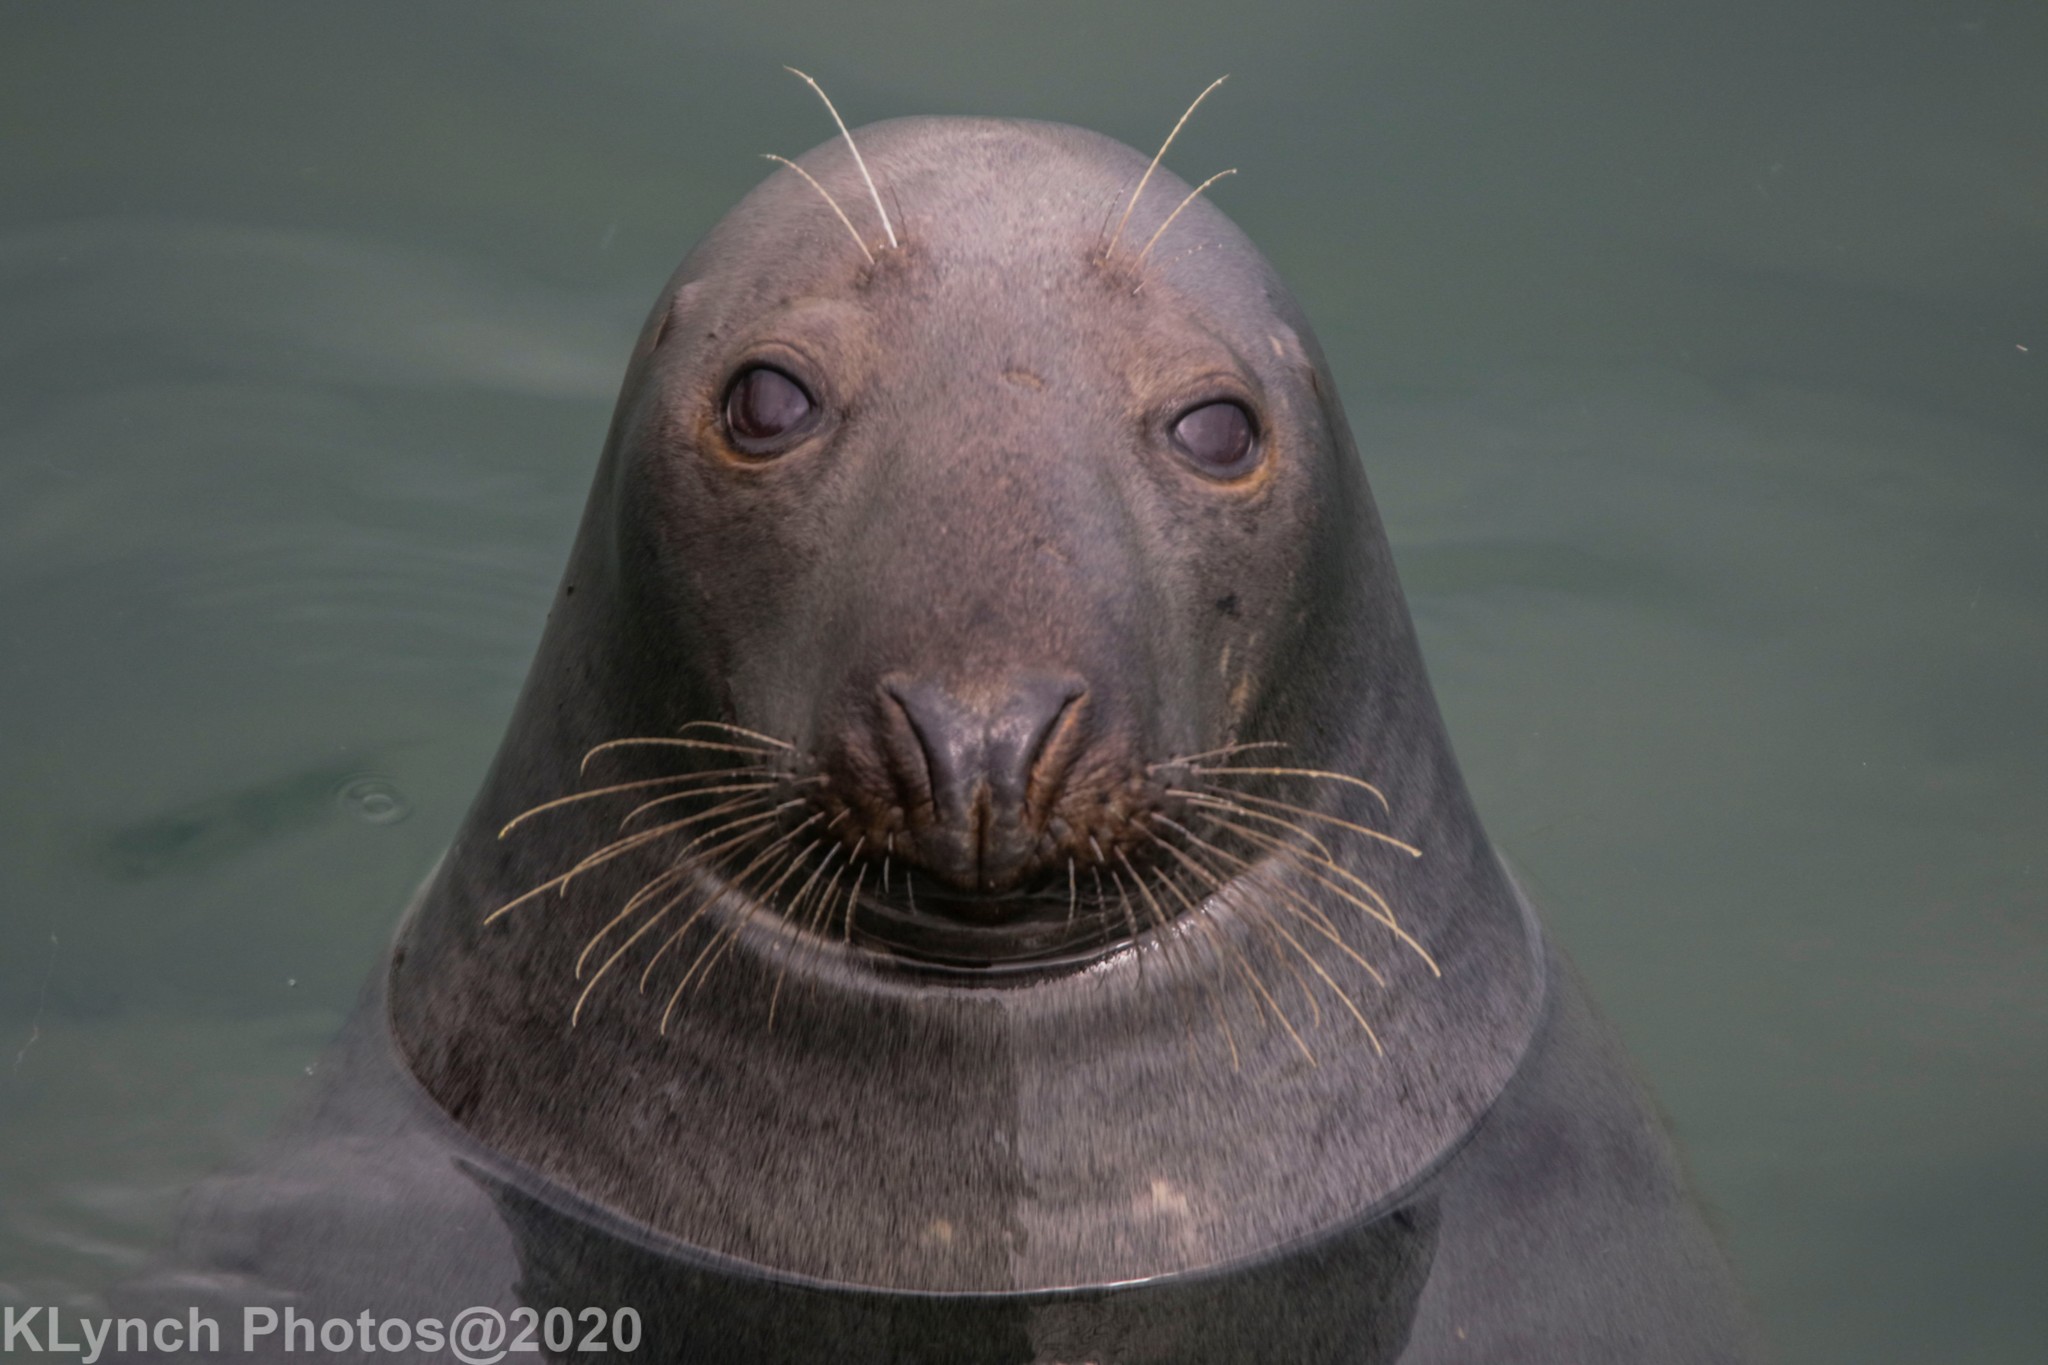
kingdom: Animalia
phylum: Chordata
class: Mammalia
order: Carnivora
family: Phocidae
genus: Halichoerus
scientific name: Halichoerus grypus
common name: Grey seal
